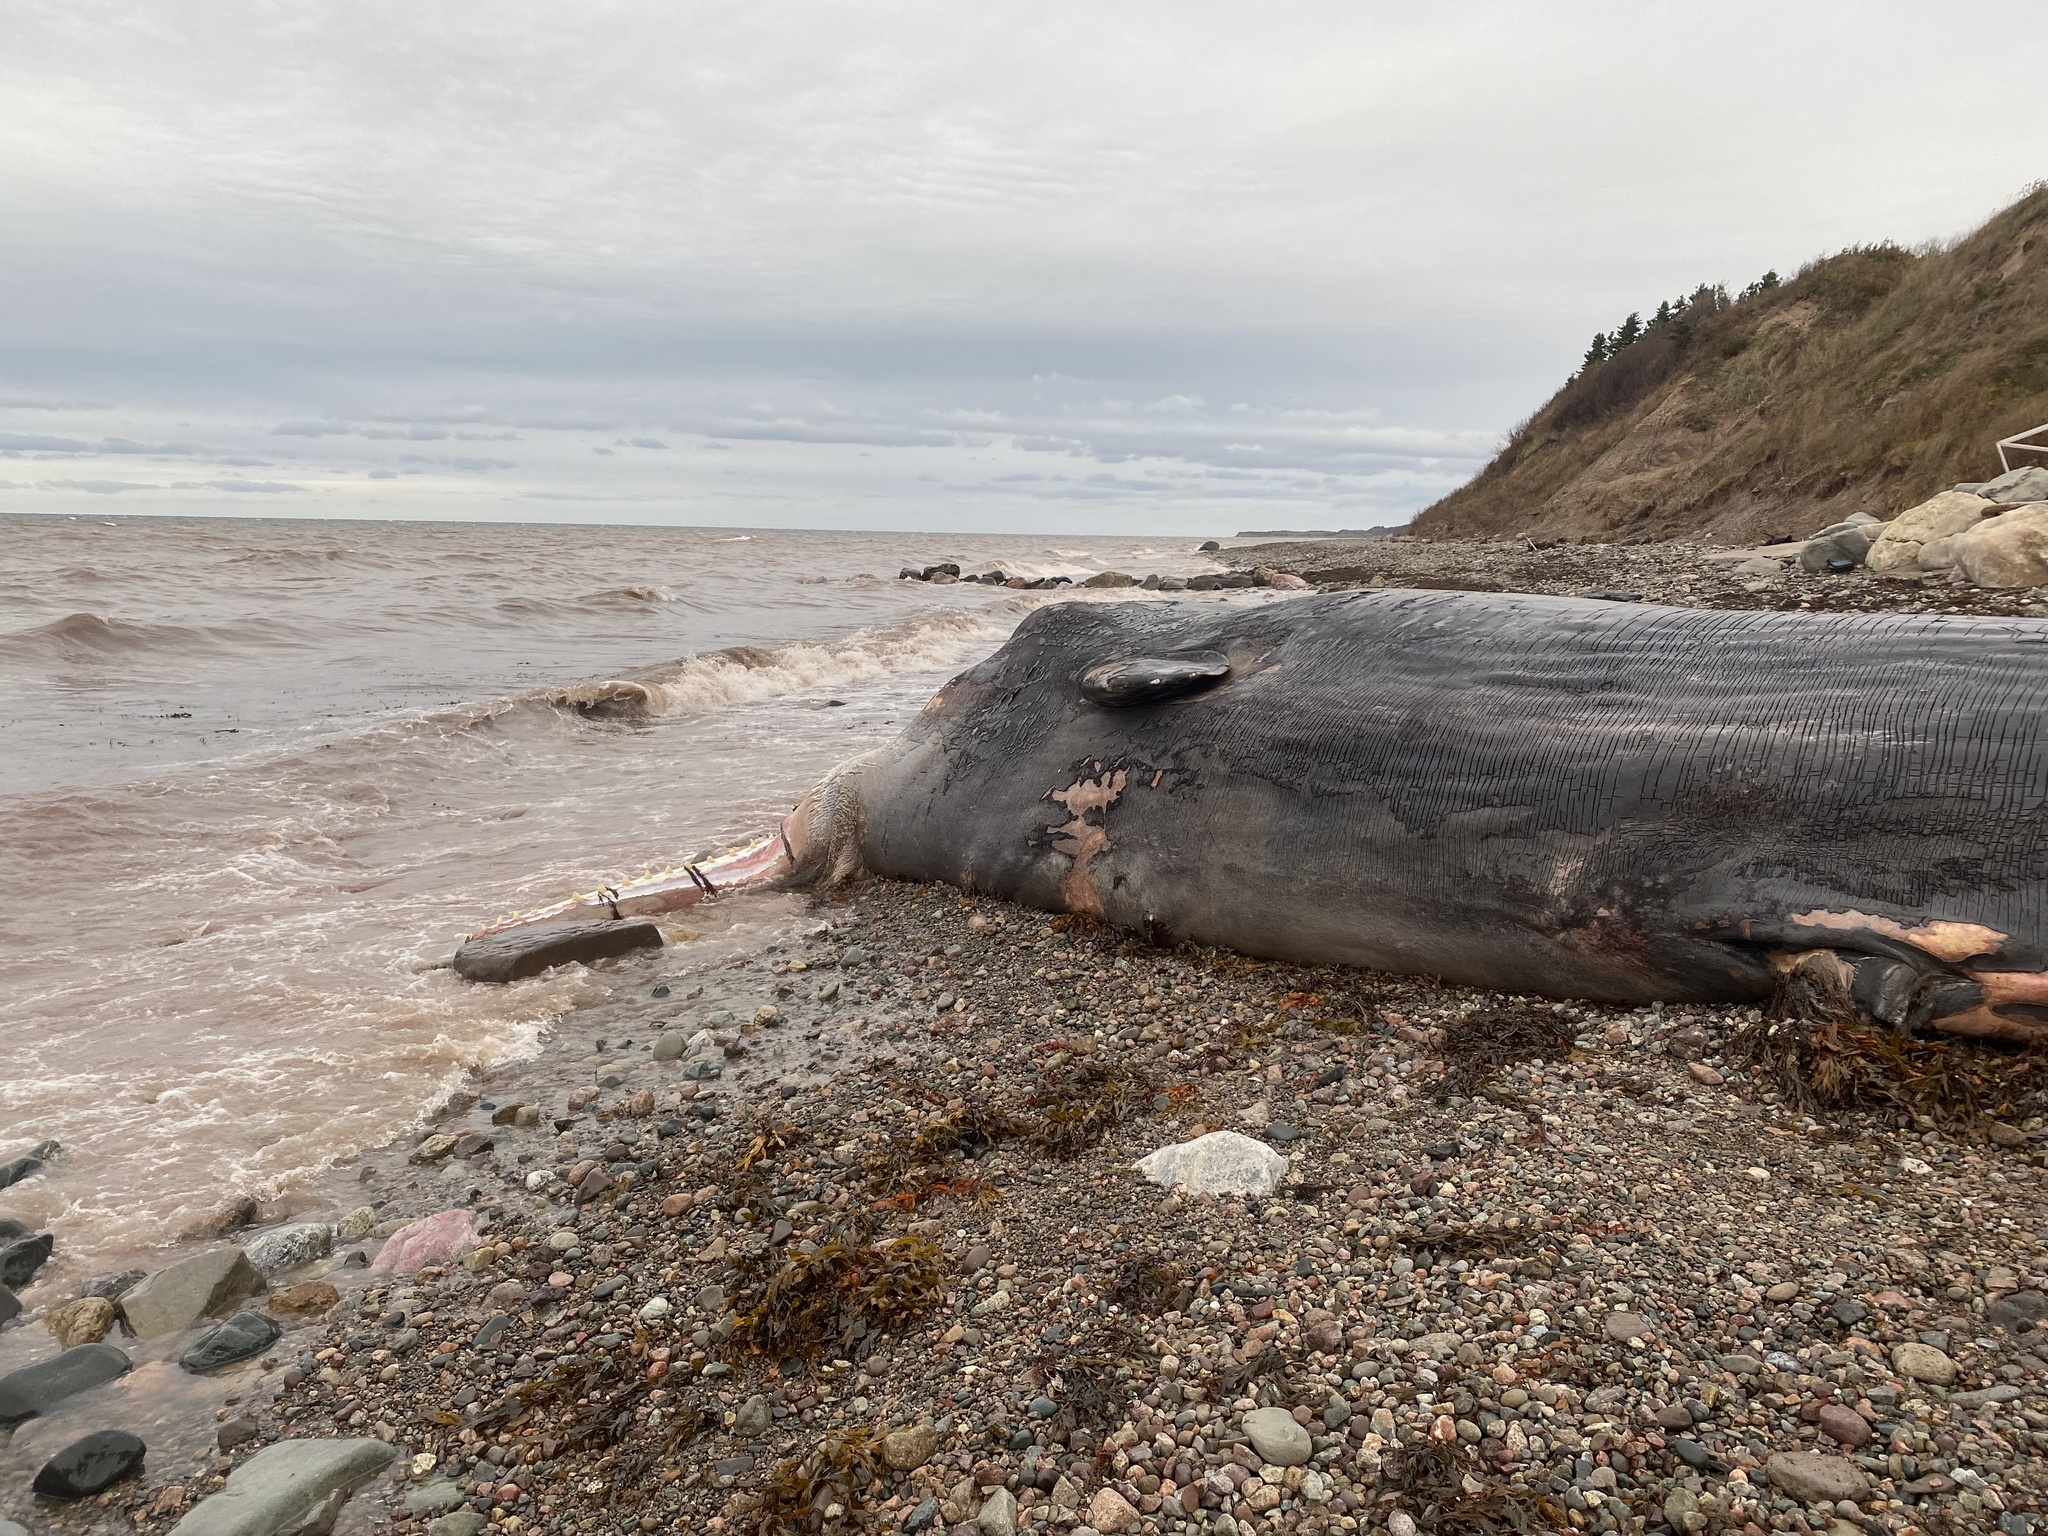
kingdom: Animalia
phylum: Chordata
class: Mammalia
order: Cetacea
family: Physeteridae
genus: Physeter
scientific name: Physeter macrocephalus
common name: Sperm whale
